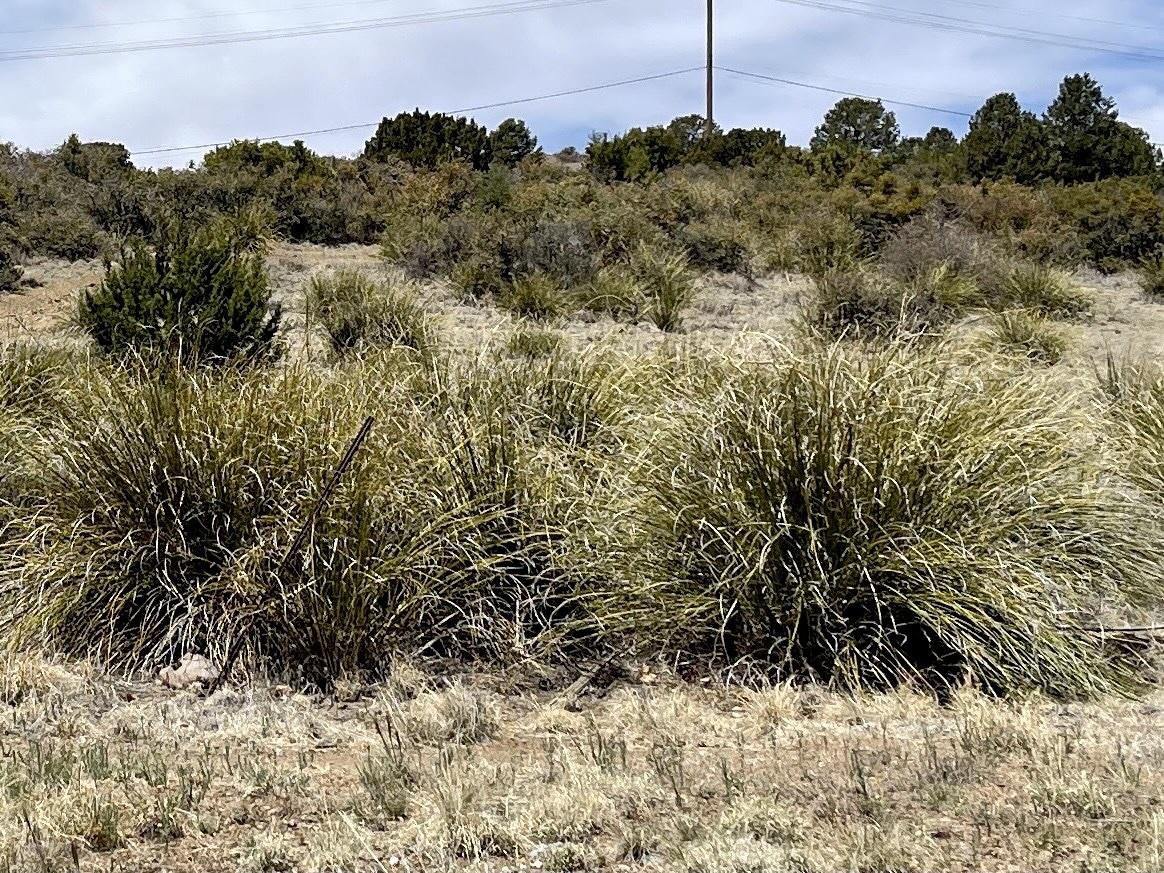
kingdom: Plantae
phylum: Tracheophyta
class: Liliopsida
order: Asparagales
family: Asparagaceae
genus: Nolina
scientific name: Nolina microcarpa
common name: Bear-grass
